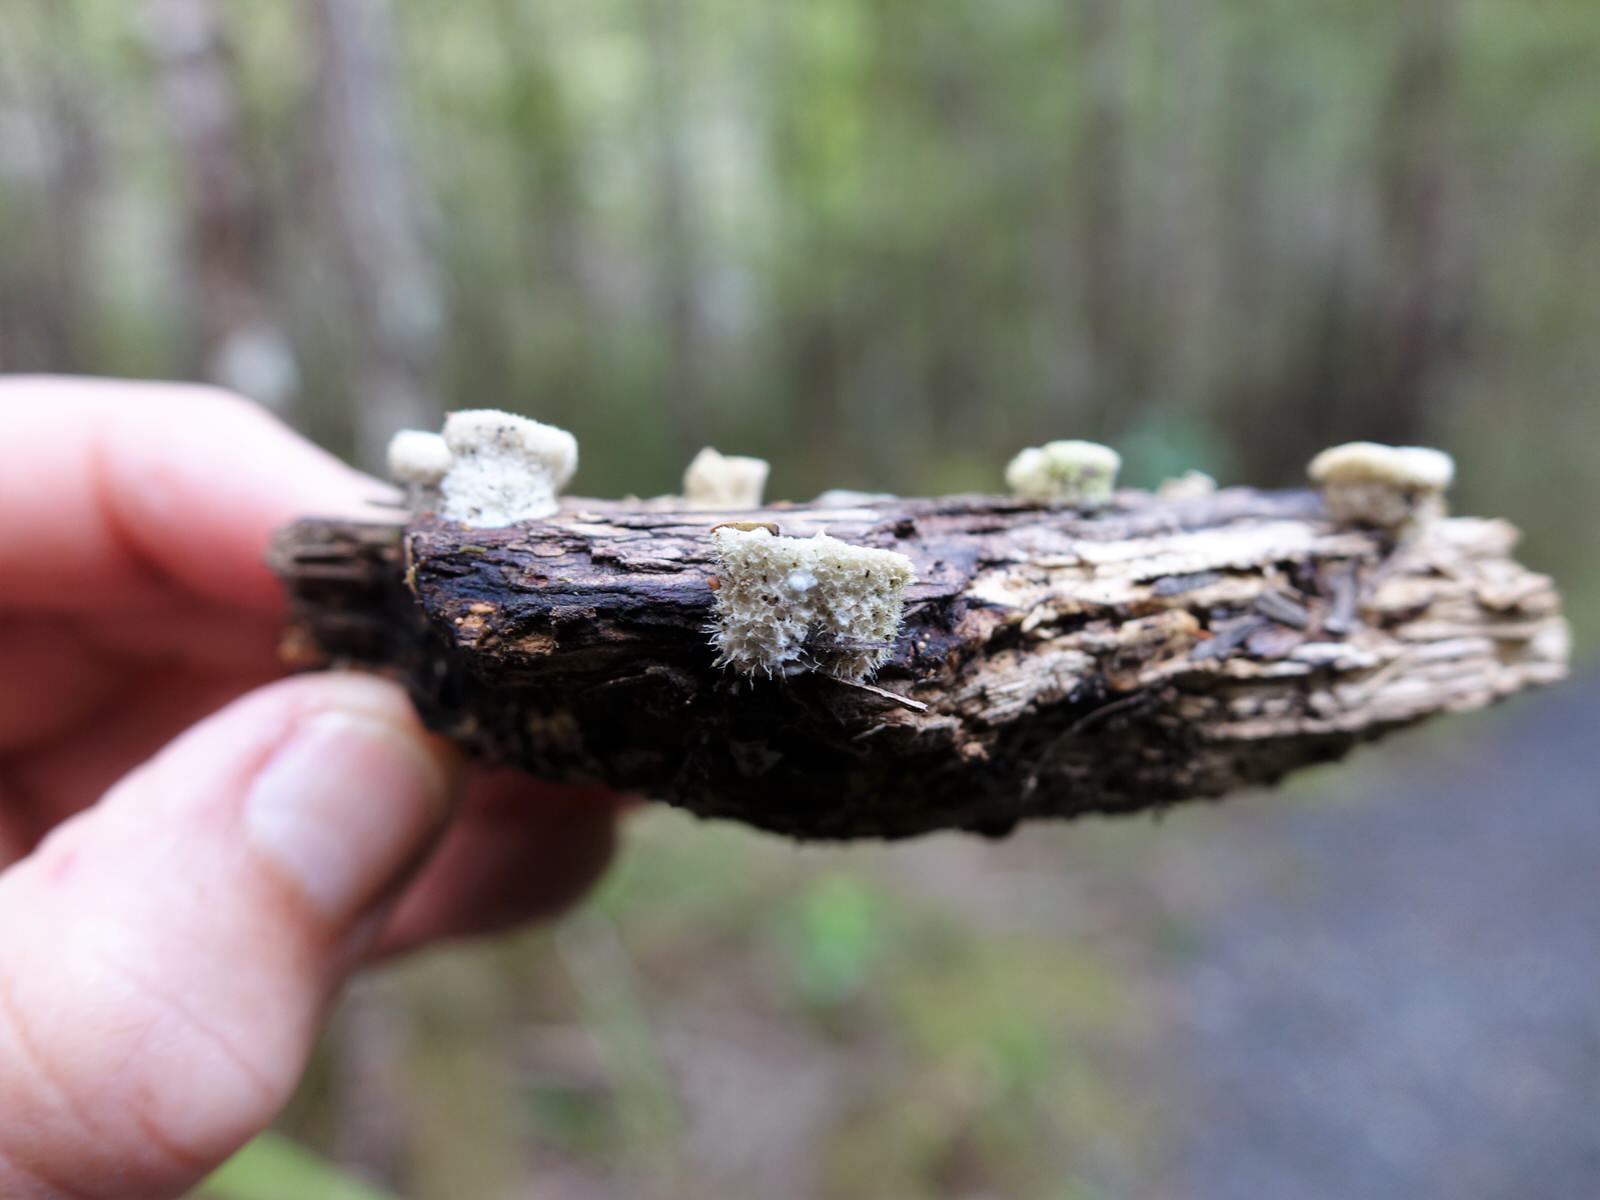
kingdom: Fungi
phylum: Basidiomycota
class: Agaricomycetes
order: Agaricales
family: Agaricaceae
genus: Nidula
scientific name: Nidula niveotomentosa
